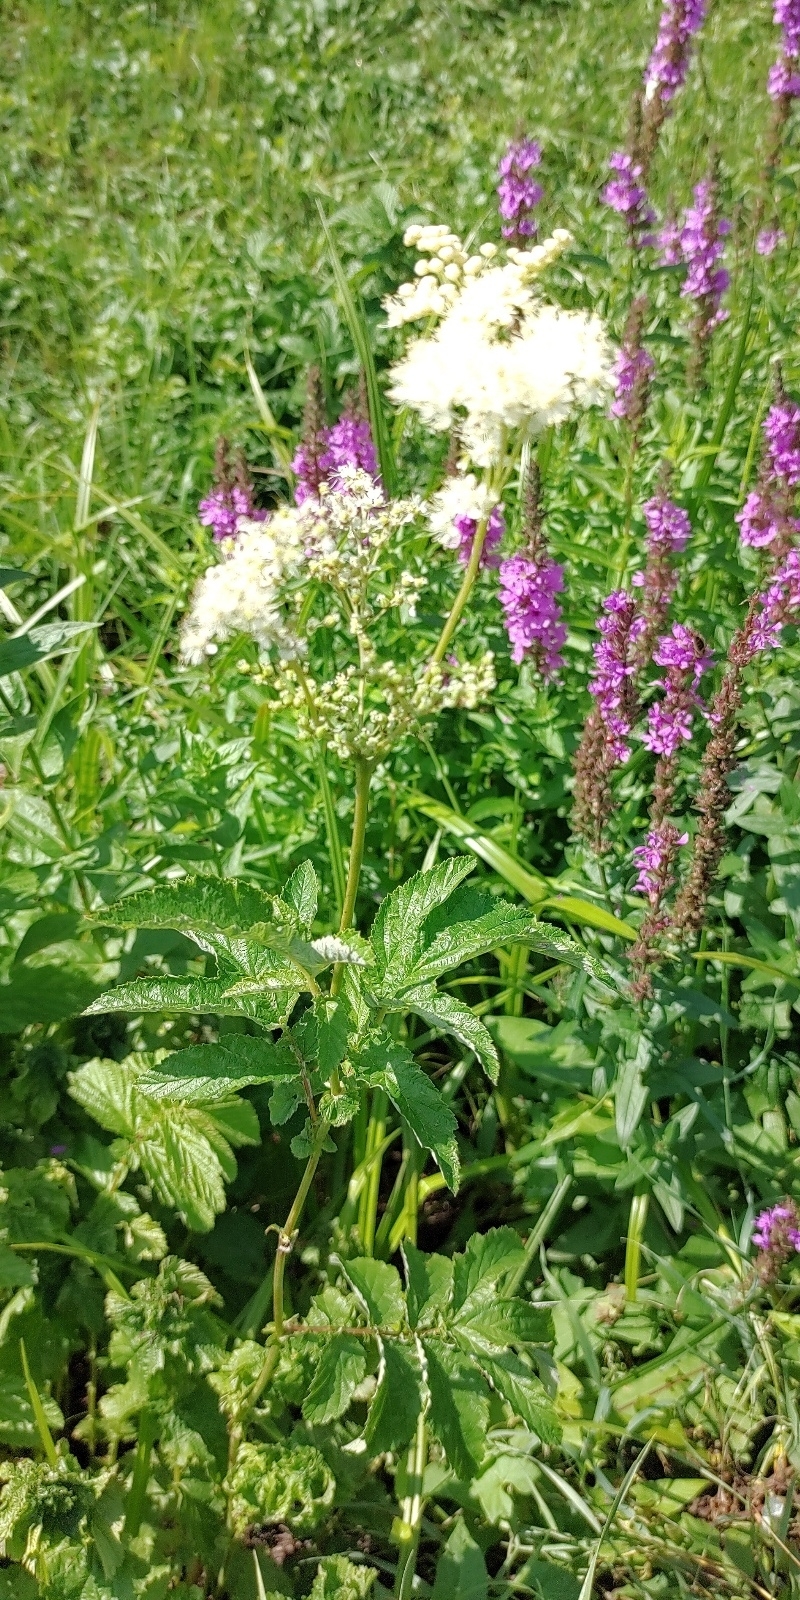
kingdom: Plantae
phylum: Tracheophyta
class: Magnoliopsida
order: Rosales
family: Rosaceae
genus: Filipendula
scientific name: Filipendula ulmaria
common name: Meadowsweet
